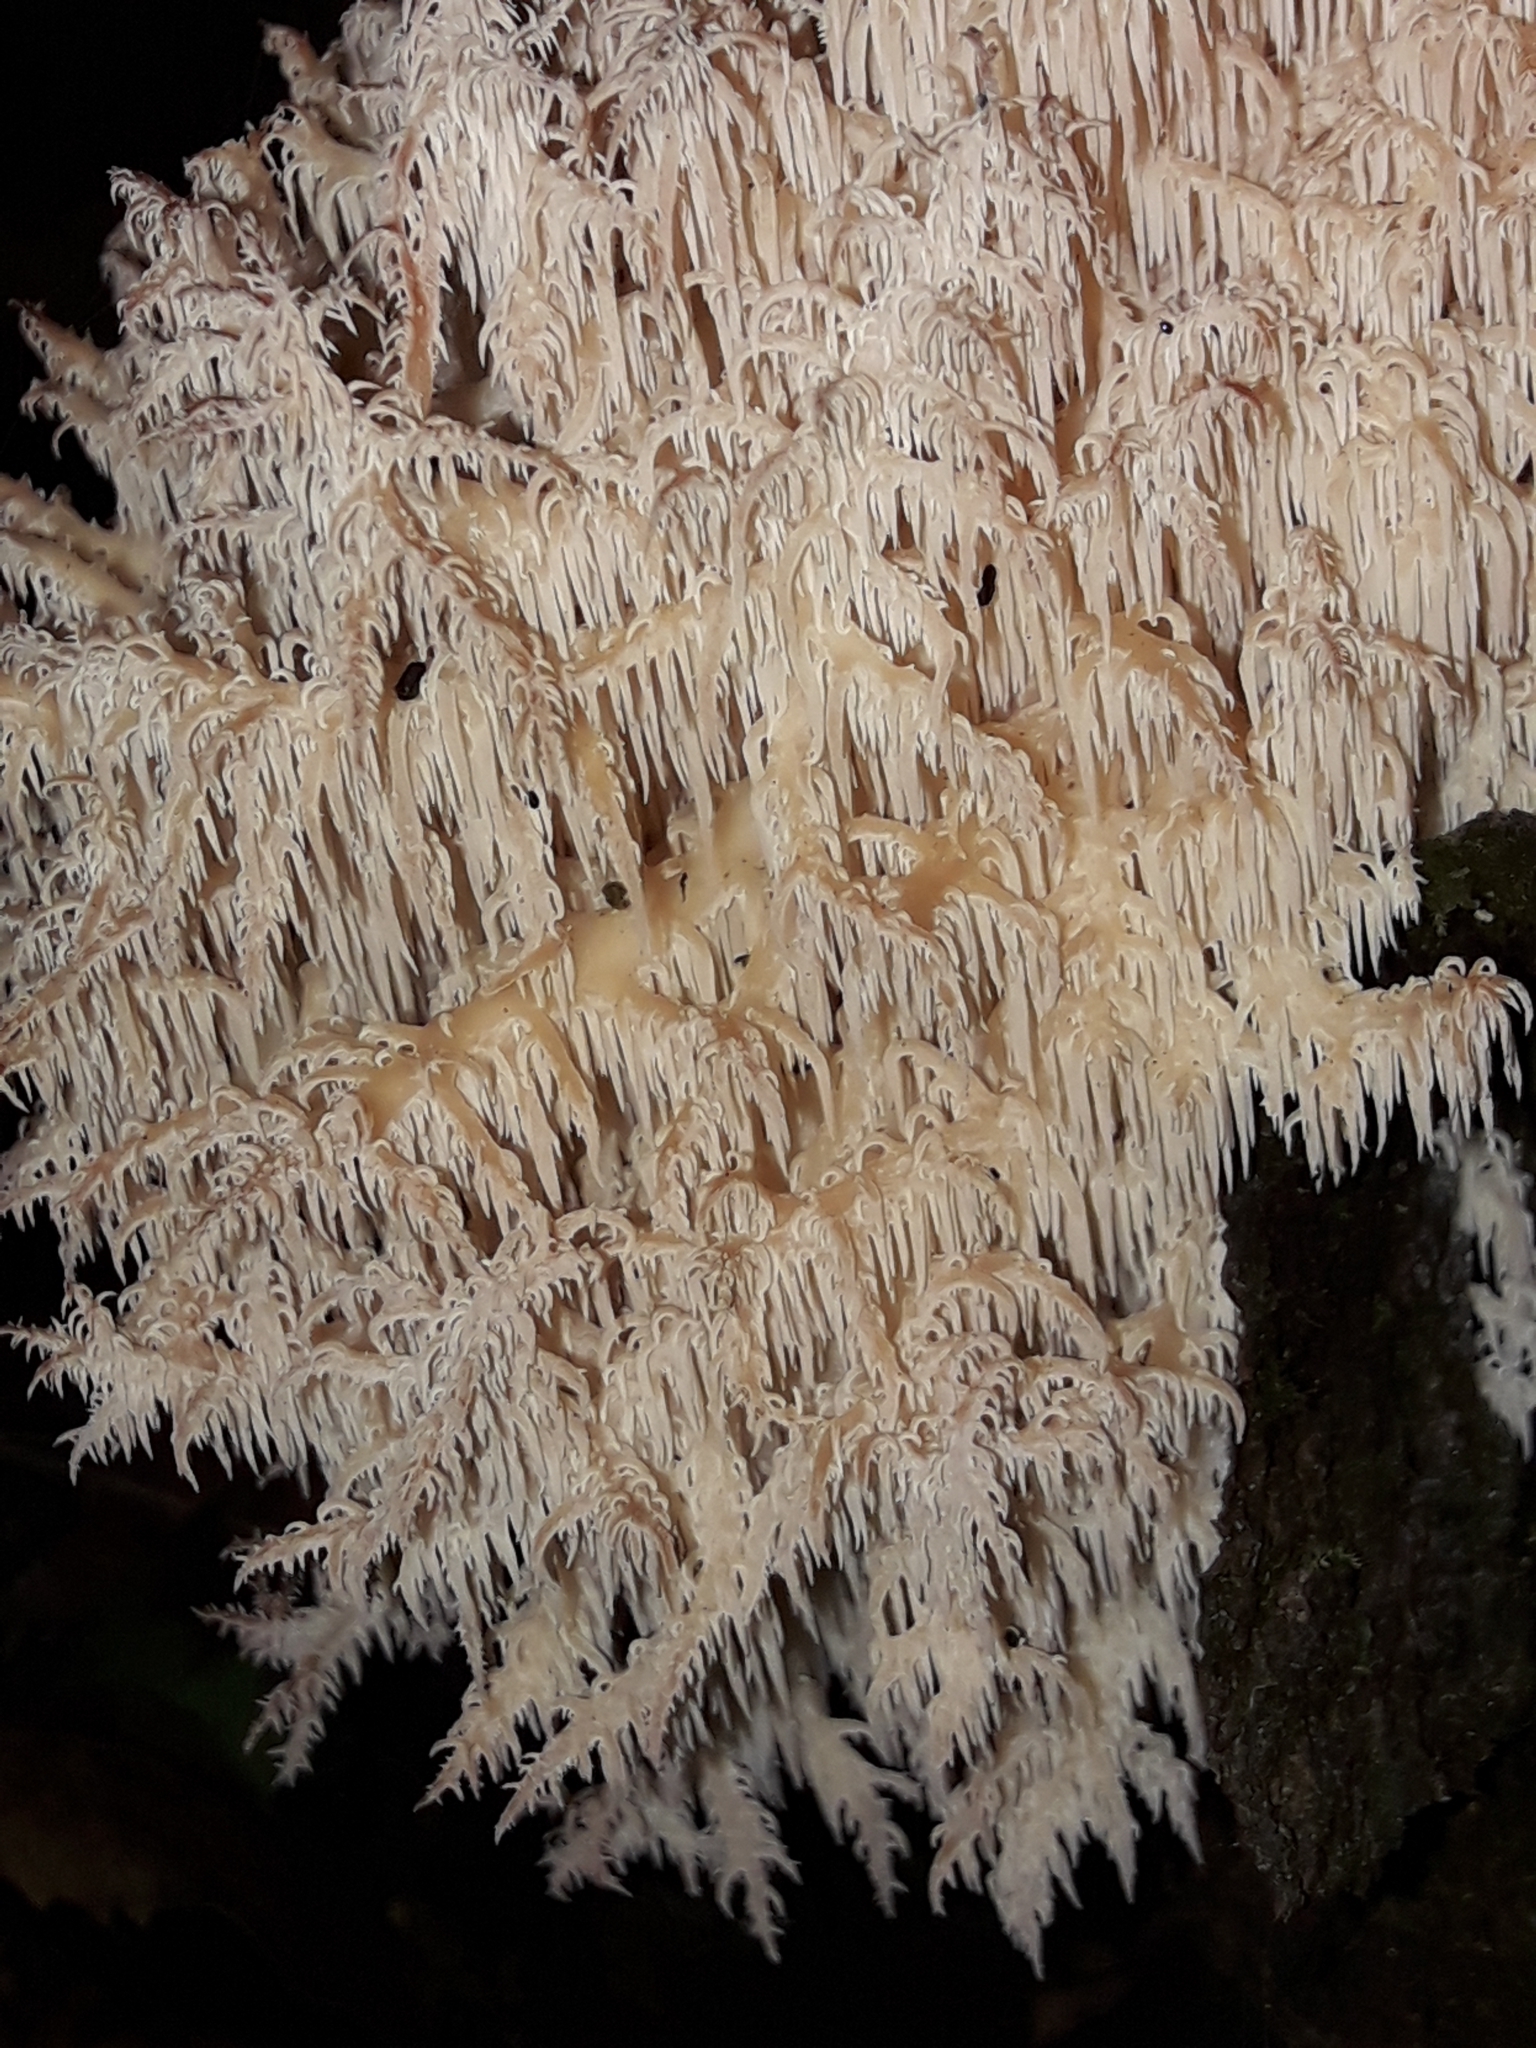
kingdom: Fungi
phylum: Basidiomycota
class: Agaricomycetes
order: Russulales
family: Hericiaceae
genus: Hericium
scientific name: Hericium novae-zealandiae
